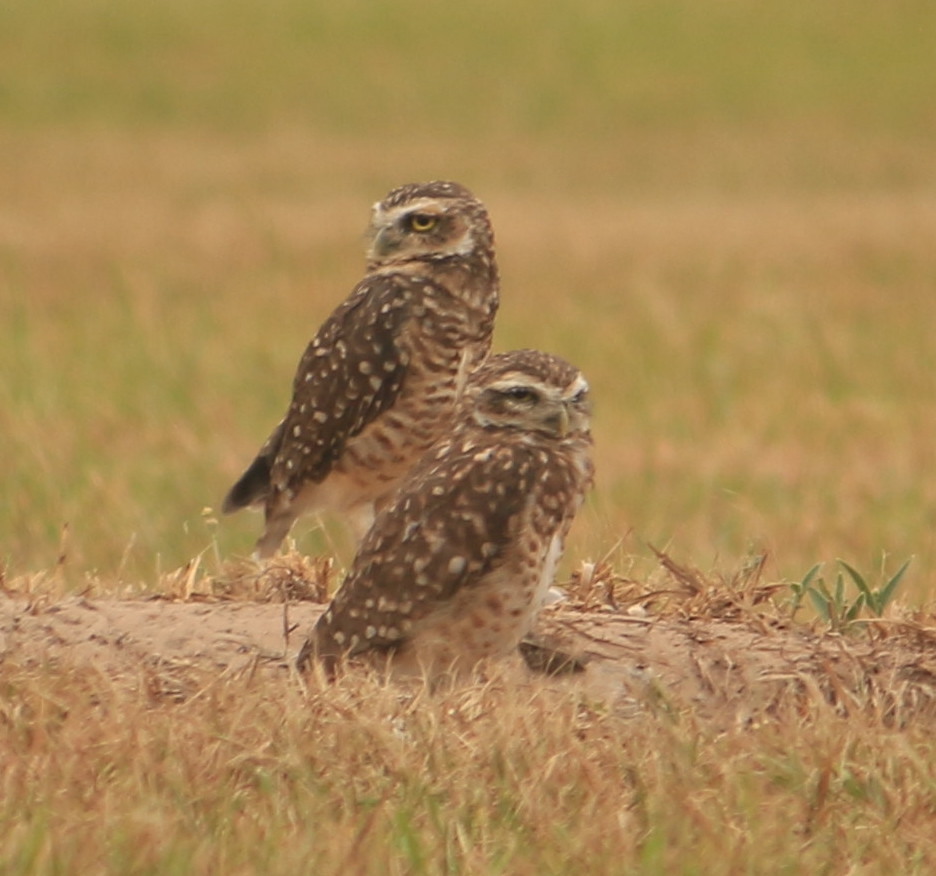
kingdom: Animalia
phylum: Chordata
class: Aves
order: Strigiformes
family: Strigidae
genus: Athene
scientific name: Athene cunicularia
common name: Burrowing owl
